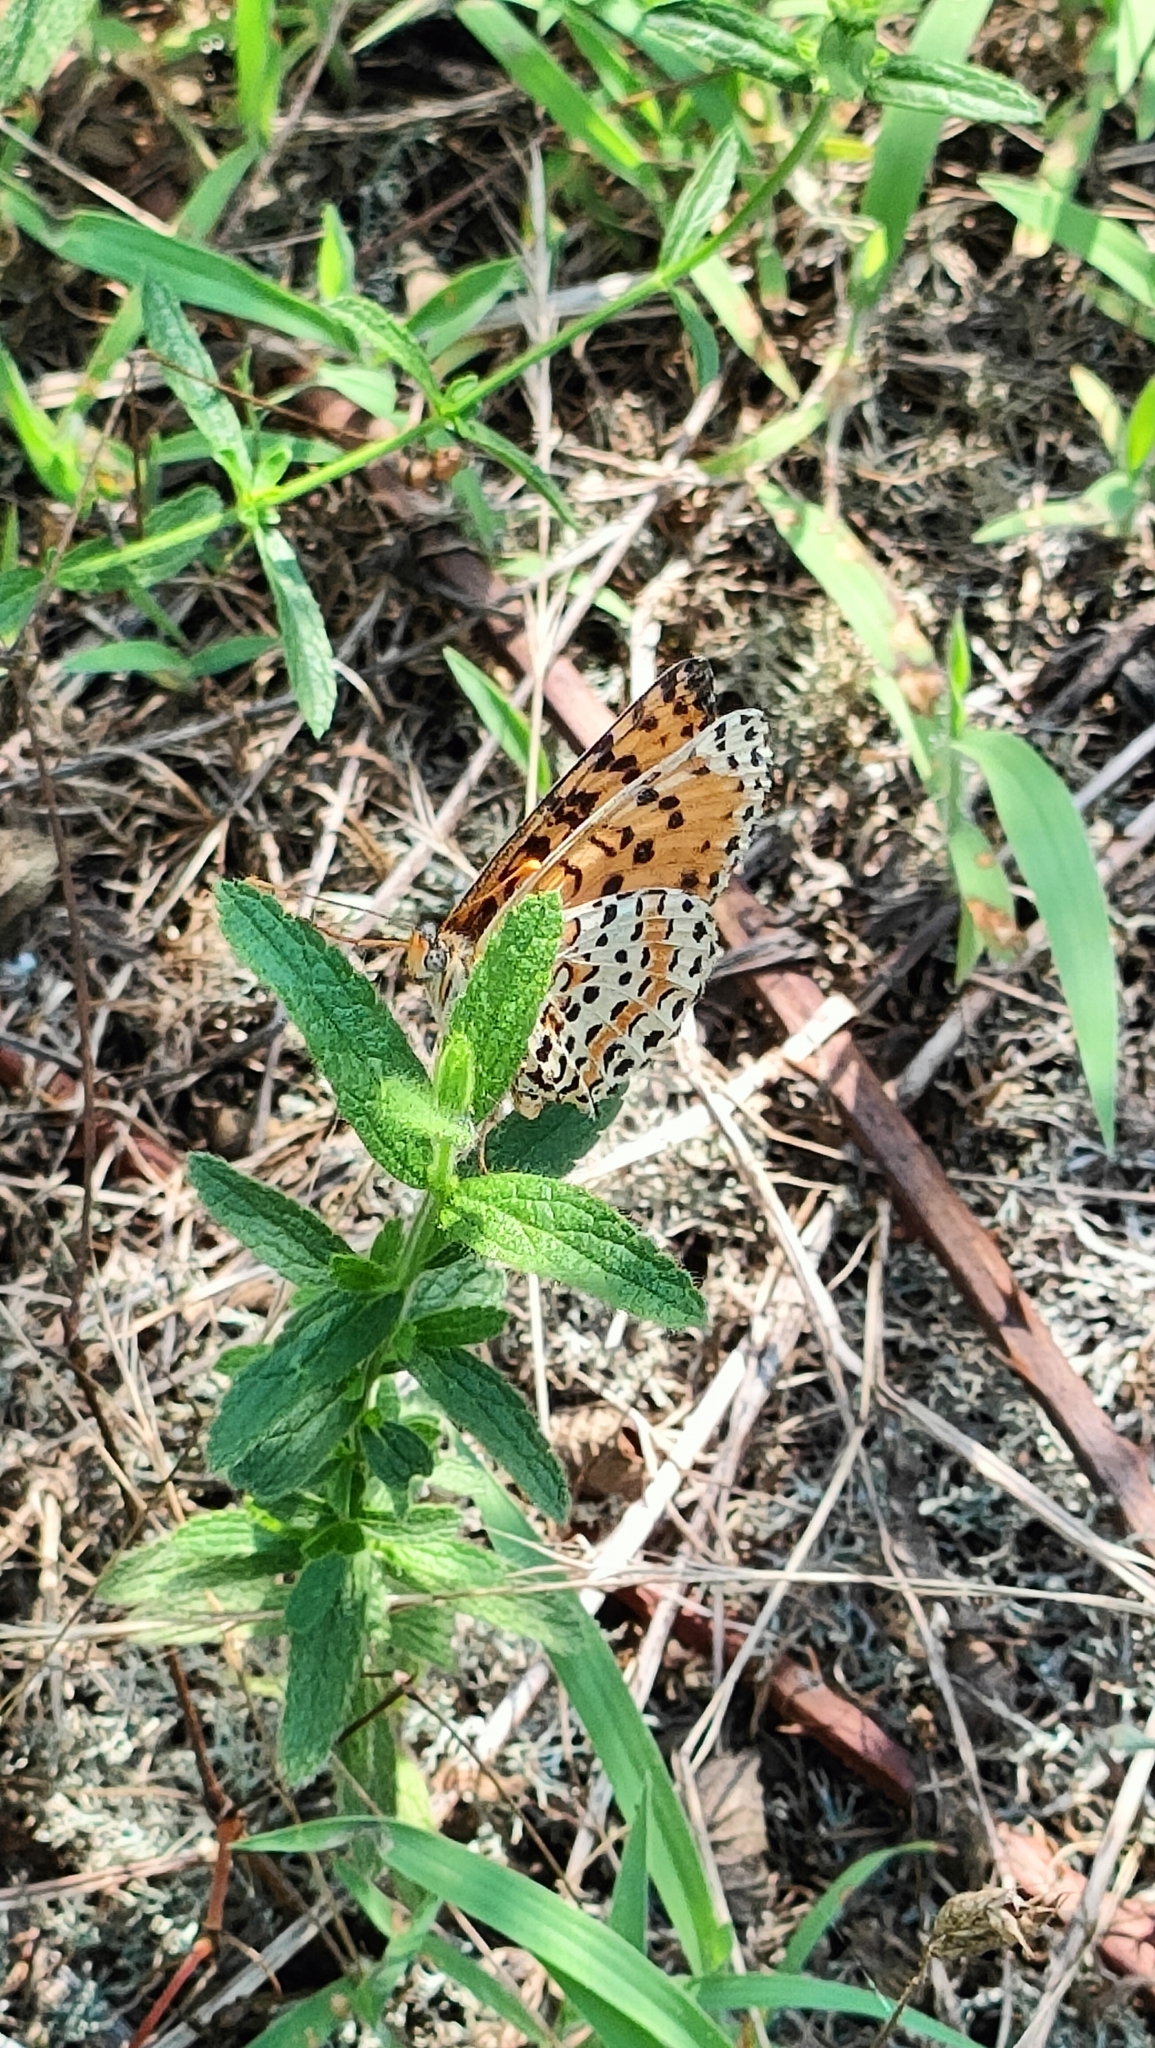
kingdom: Animalia
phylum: Arthropoda
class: Insecta
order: Lepidoptera
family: Nymphalidae
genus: Melitaea
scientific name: Melitaea didyma
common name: Spotted fritillary
